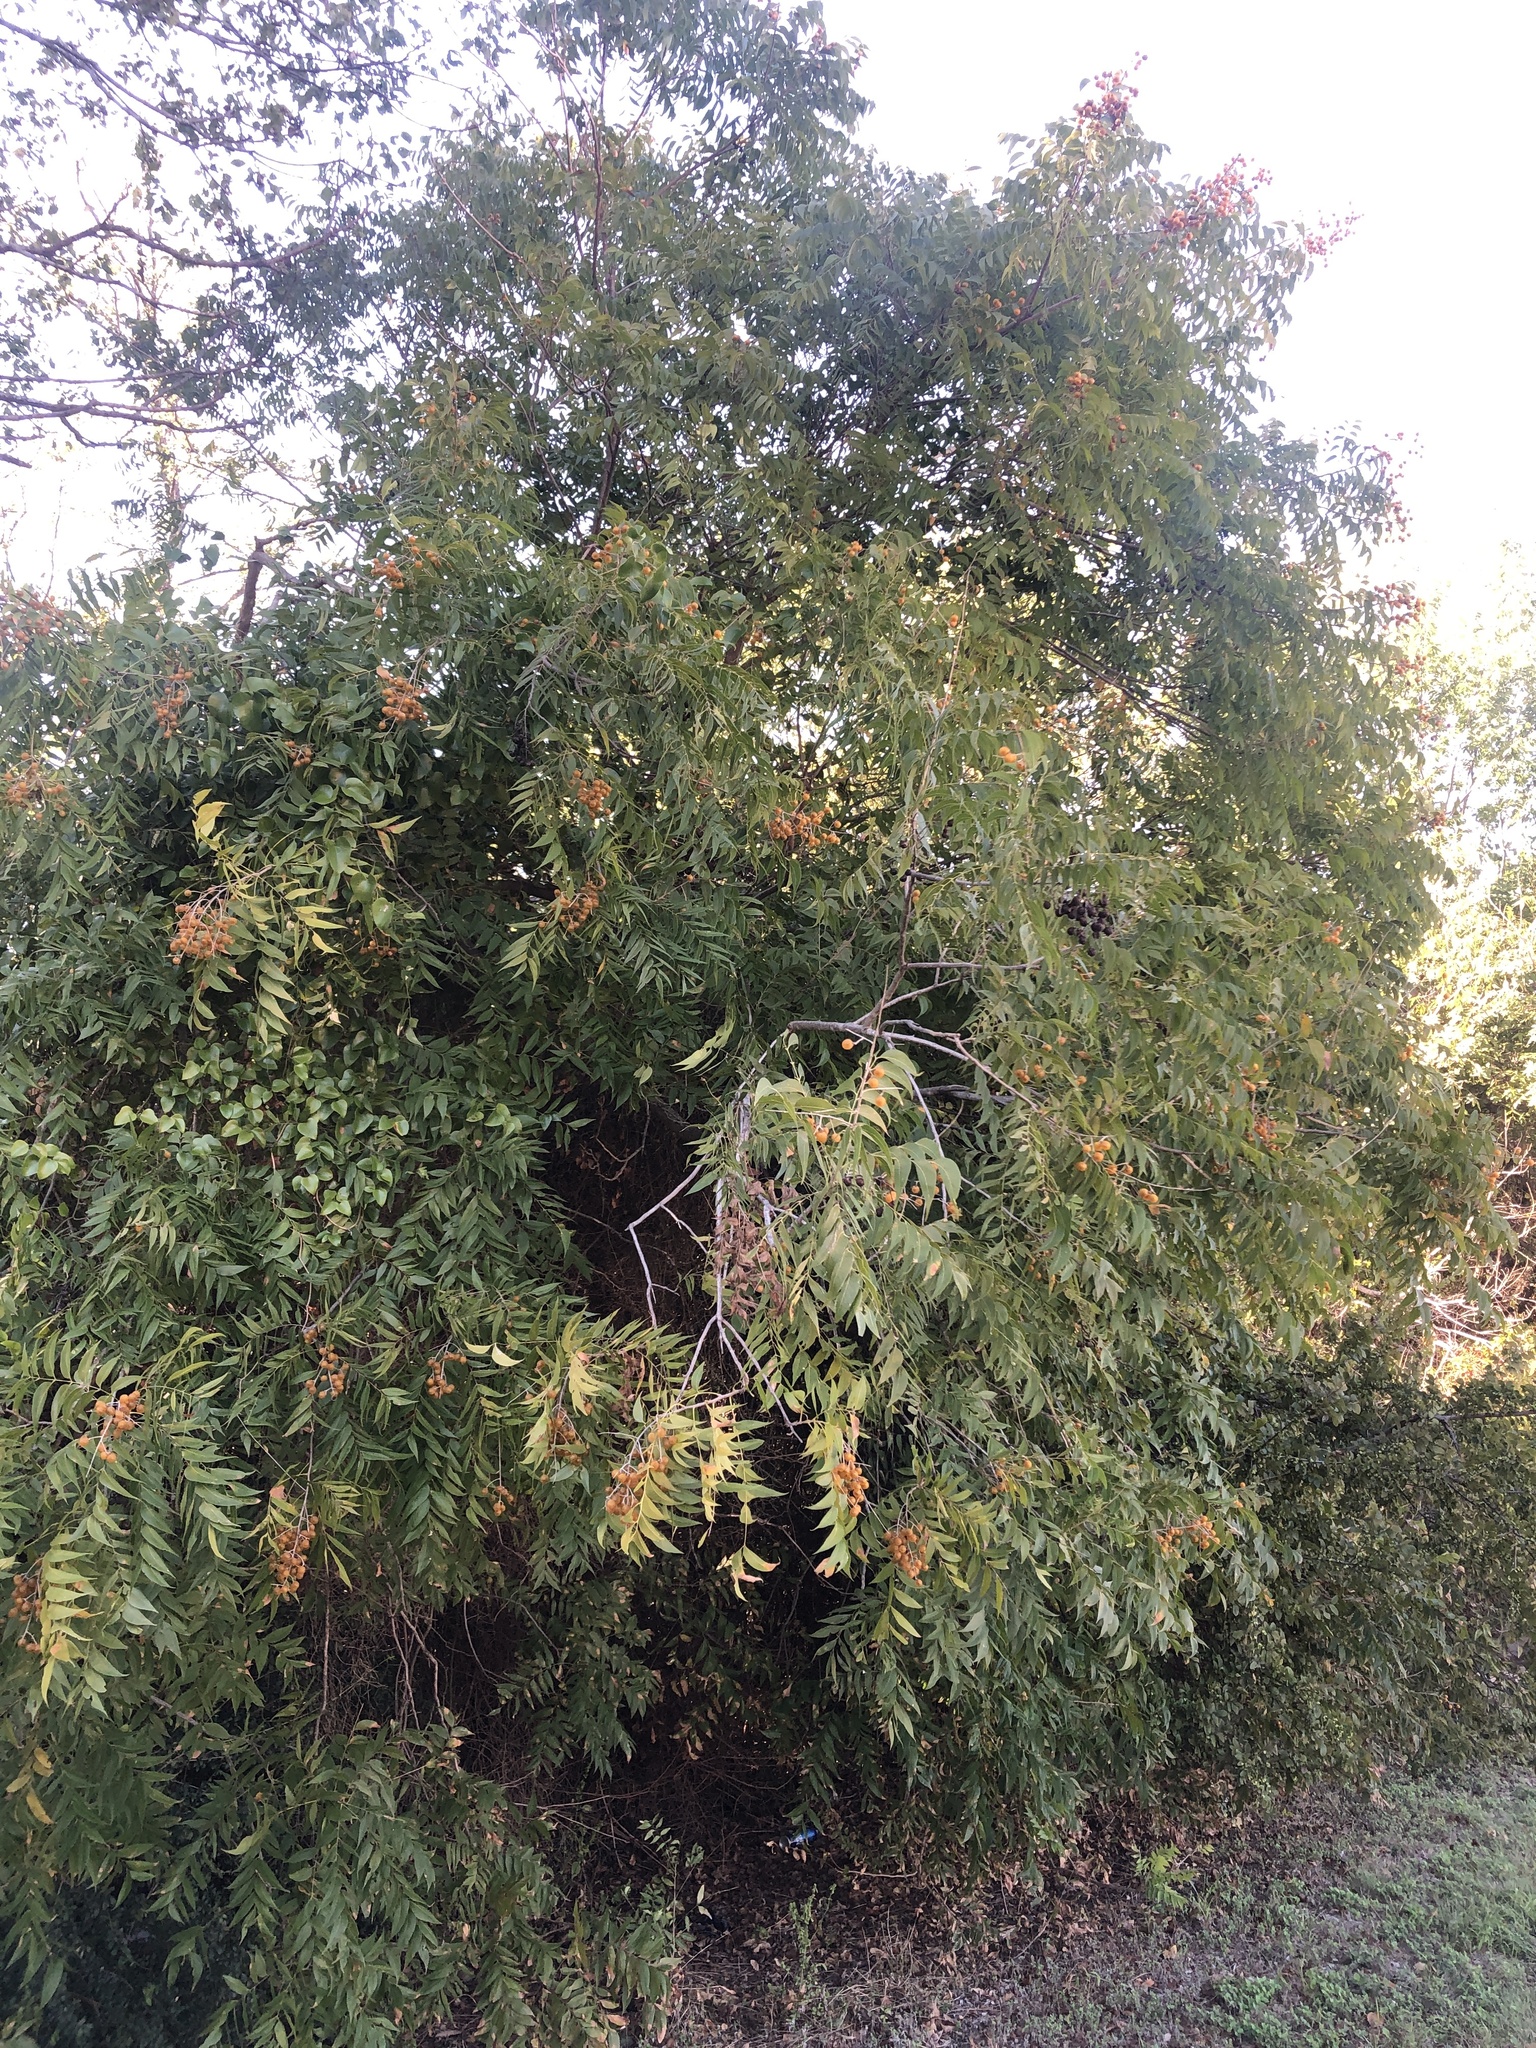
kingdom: Plantae
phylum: Tracheophyta
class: Magnoliopsida
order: Sapindales
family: Sapindaceae
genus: Sapindus
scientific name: Sapindus drummondii
